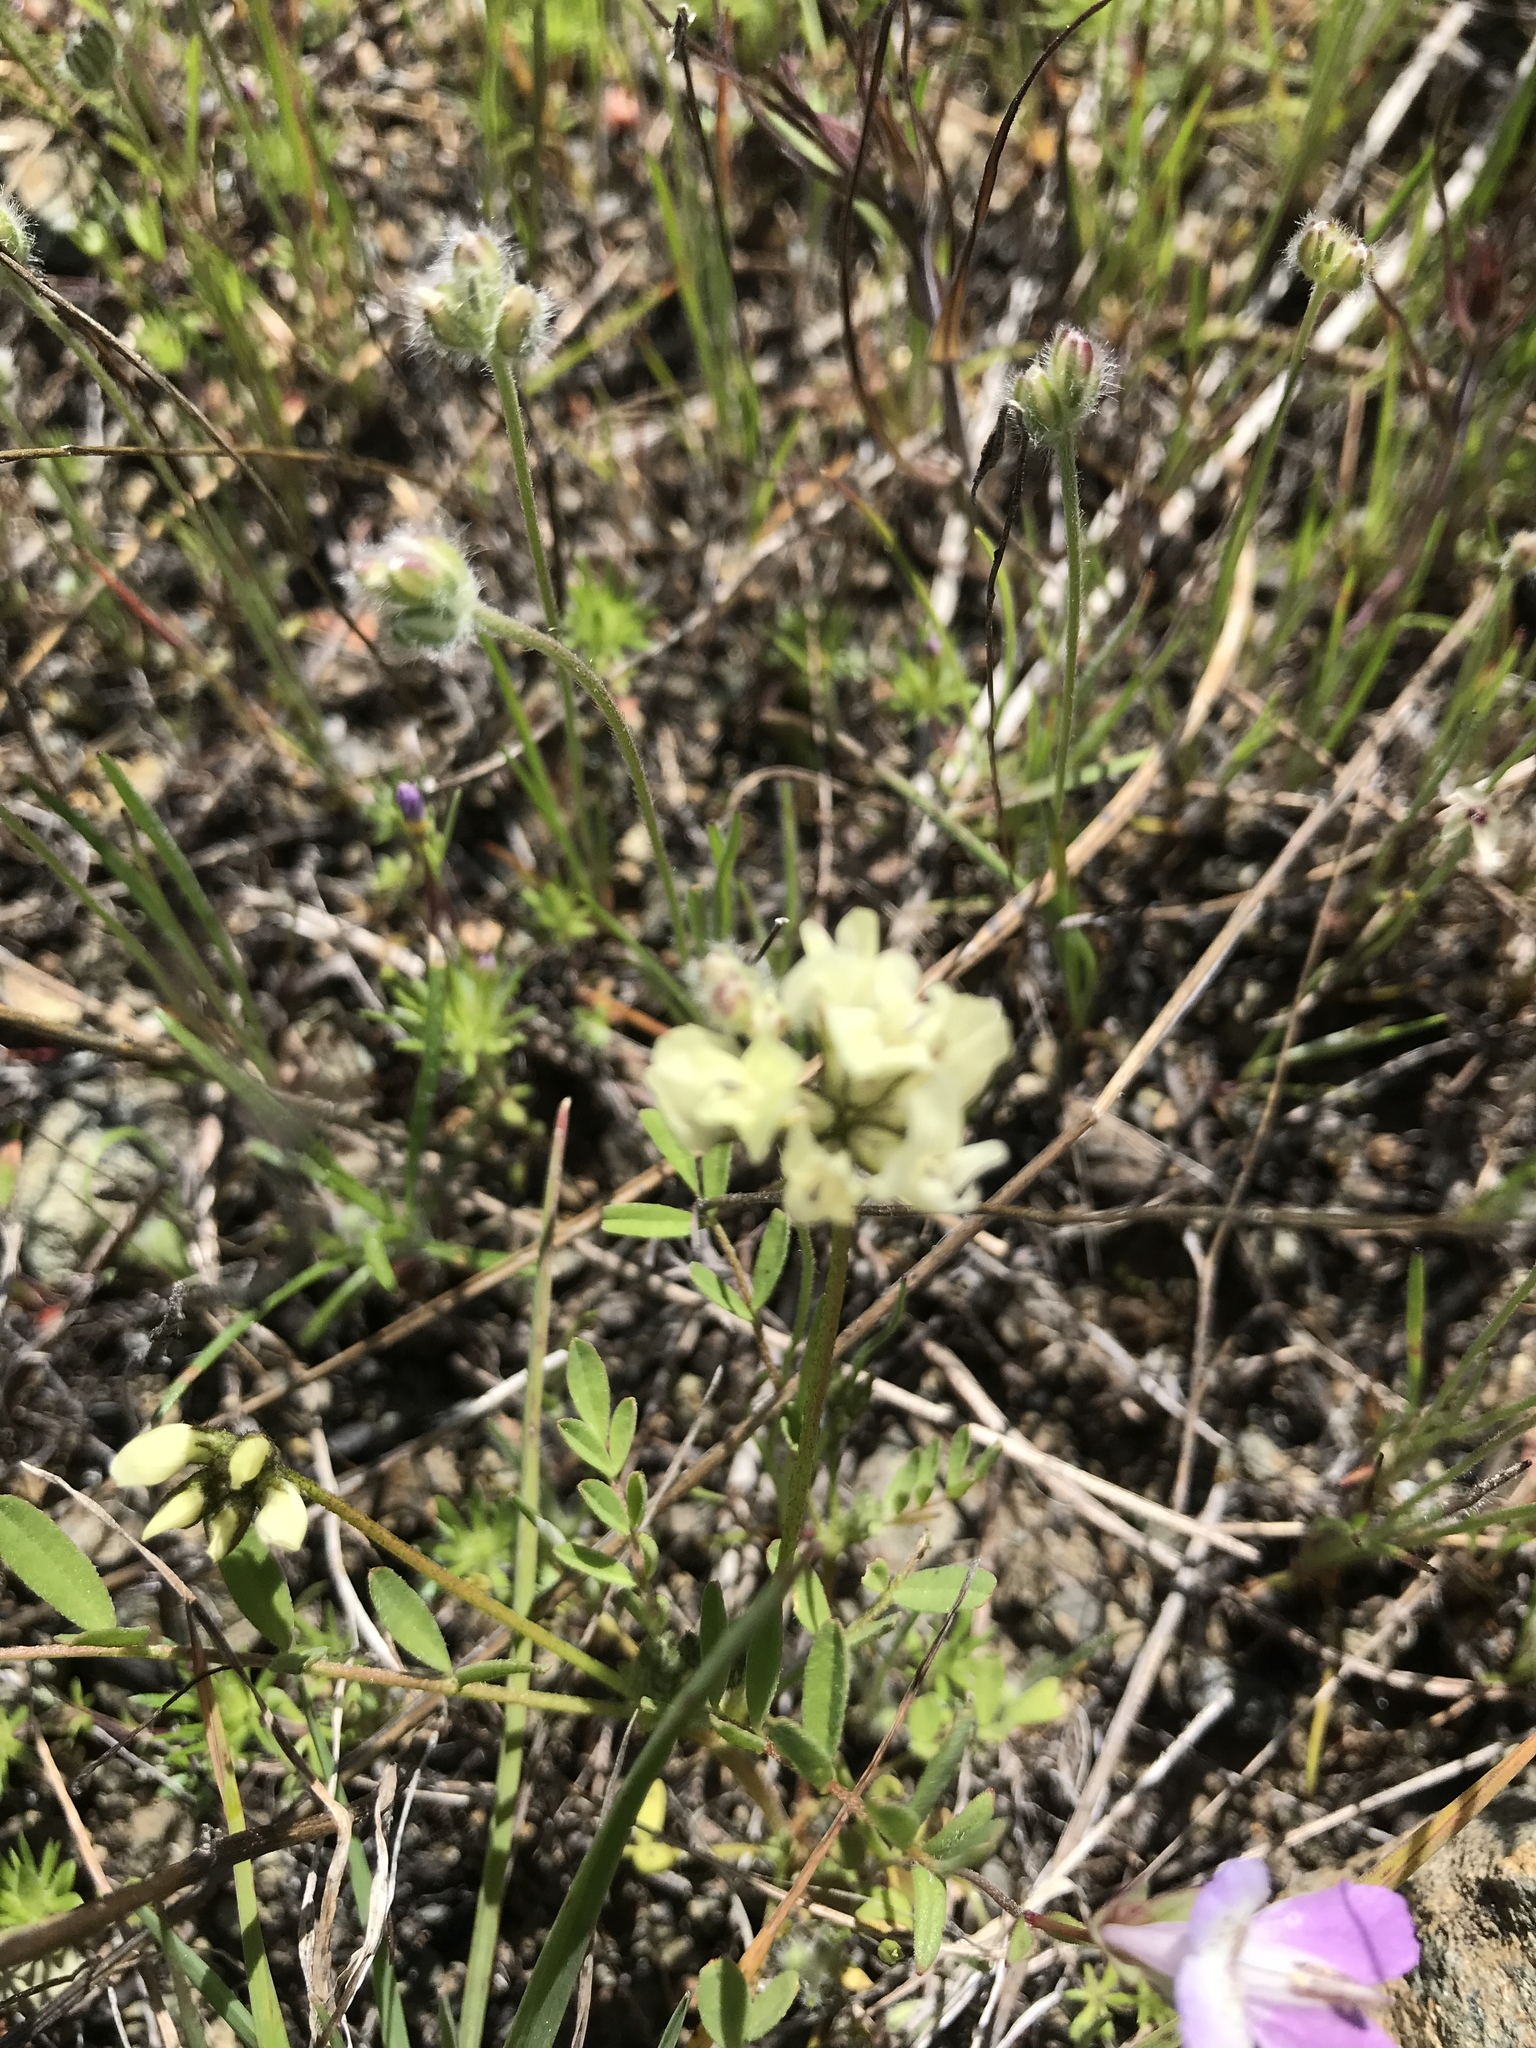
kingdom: Plantae
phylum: Tracheophyta
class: Magnoliopsida
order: Fabales
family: Fabaceae
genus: Astragalus
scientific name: Astragalus breweri
